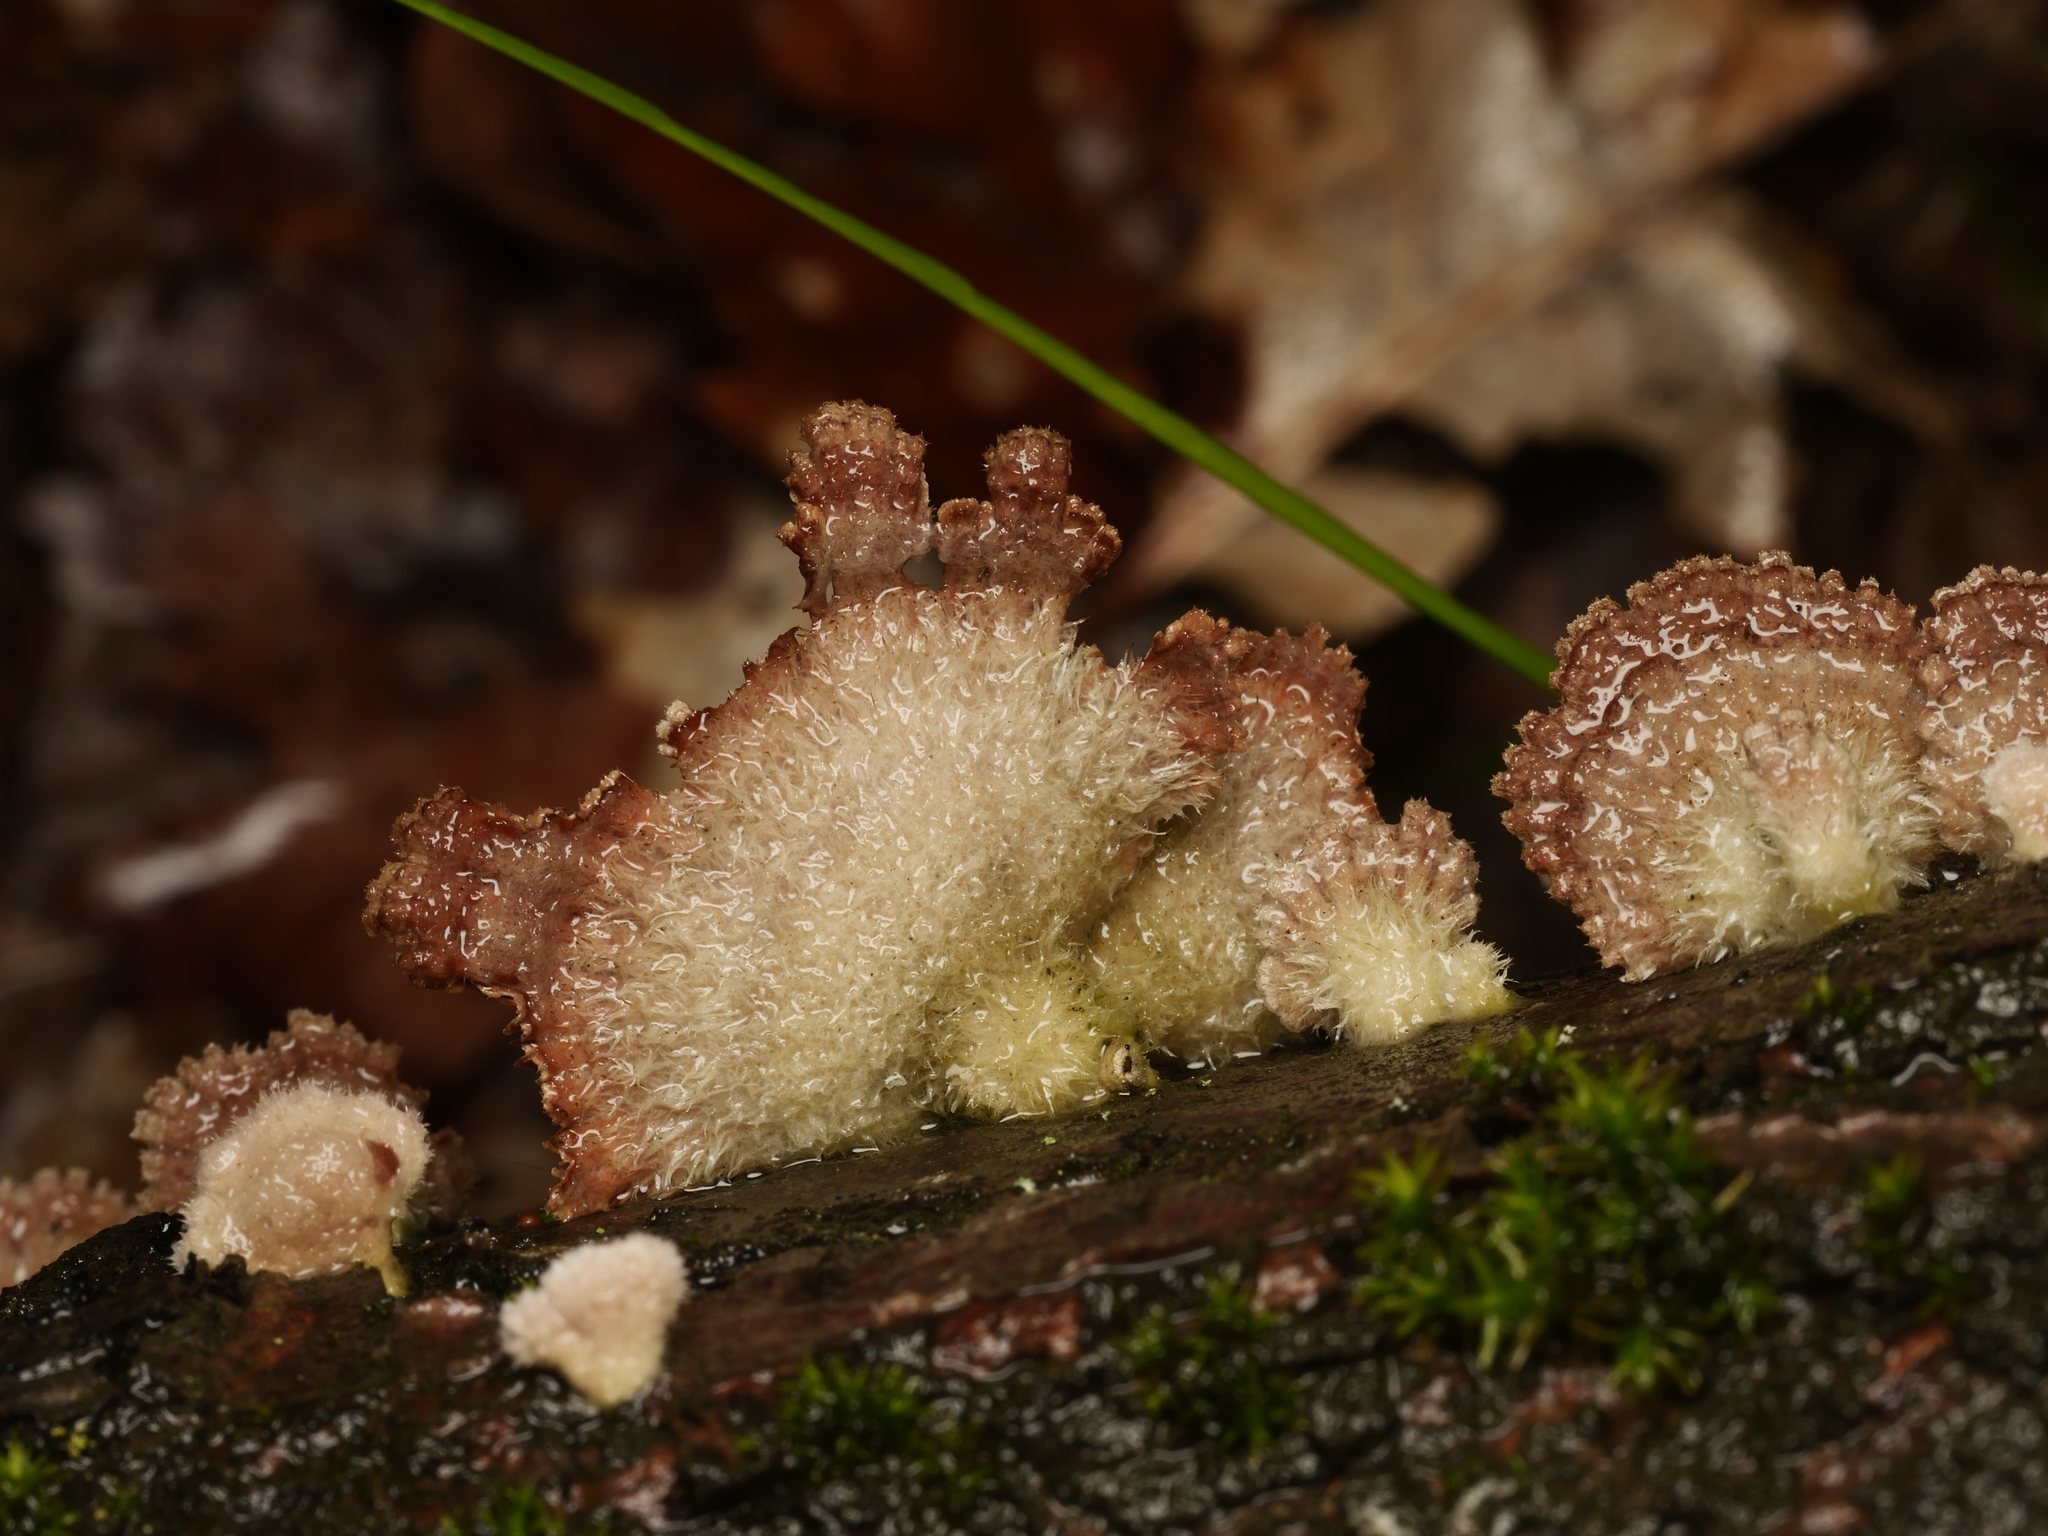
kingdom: Fungi
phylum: Basidiomycota
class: Agaricomycetes
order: Agaricales
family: Schizophyllaceae
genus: Schizophyllum
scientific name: Schizophyllum commune
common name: Common porecrust
